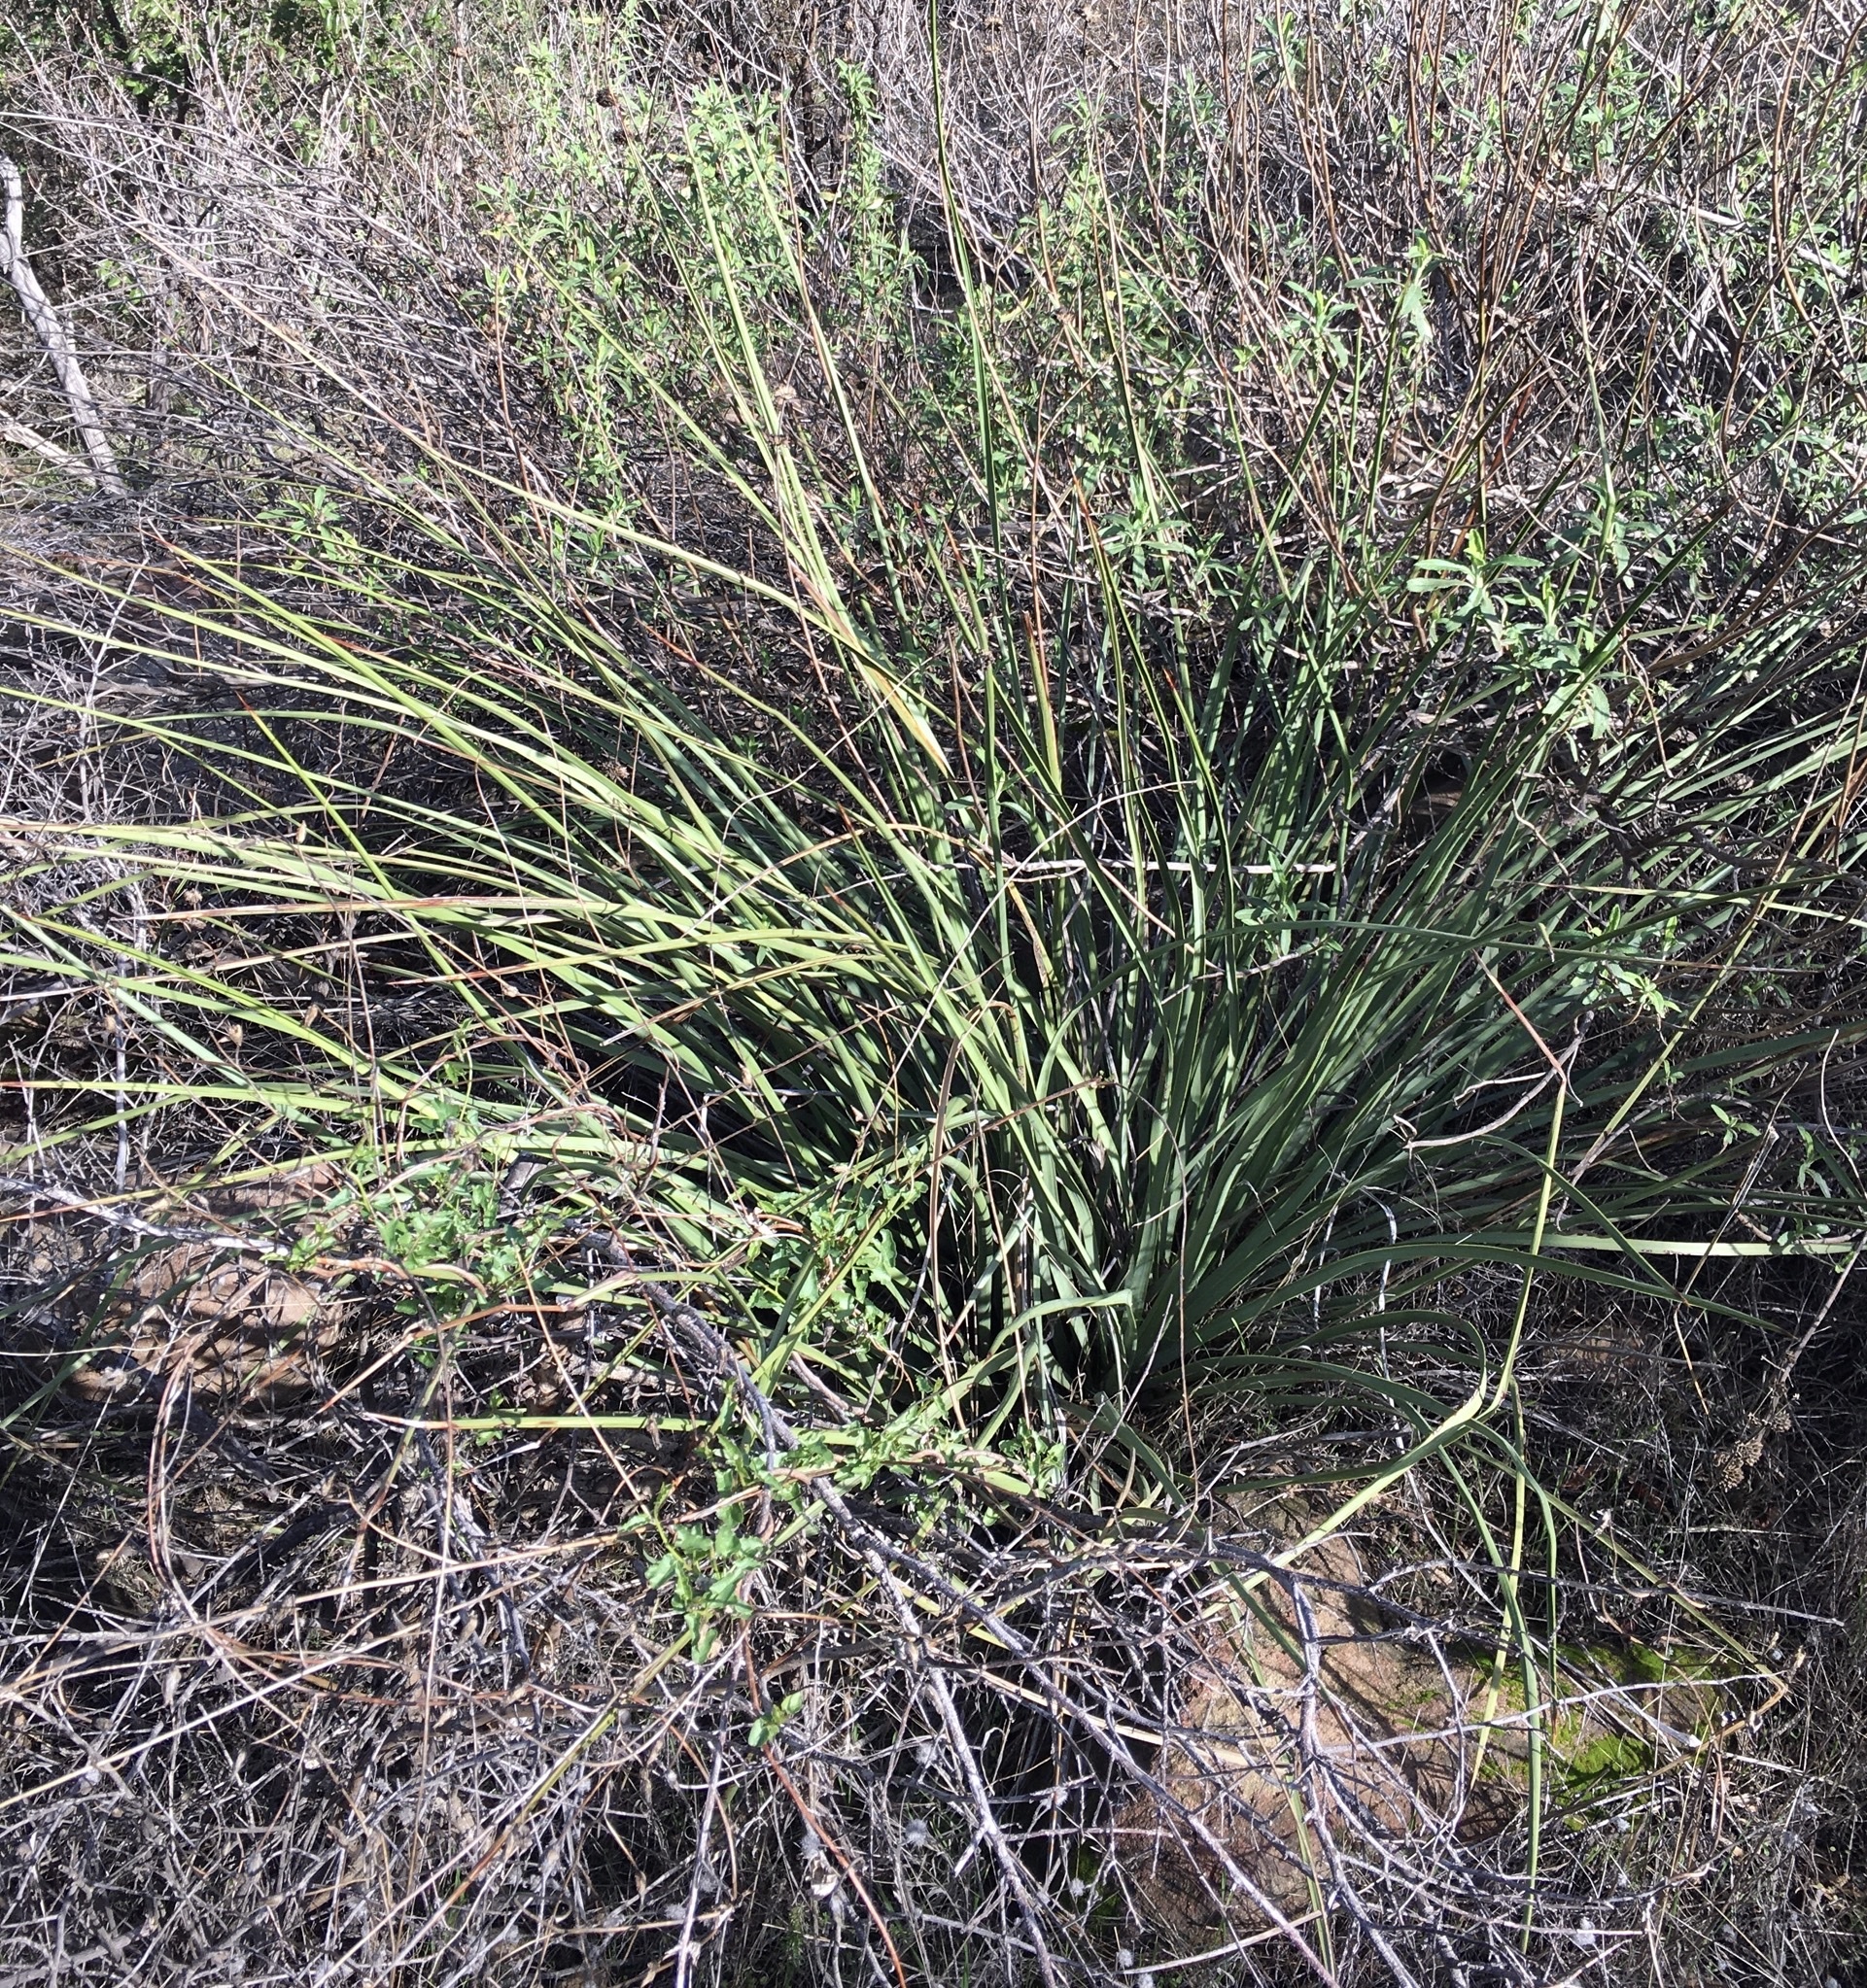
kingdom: Plantae
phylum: Tracheophyta
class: Liliopsida
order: Asparagales
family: Asparagaceae
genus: Hesperoyucca
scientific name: Hesperoyucca whipplei
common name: Our lord's-candle
